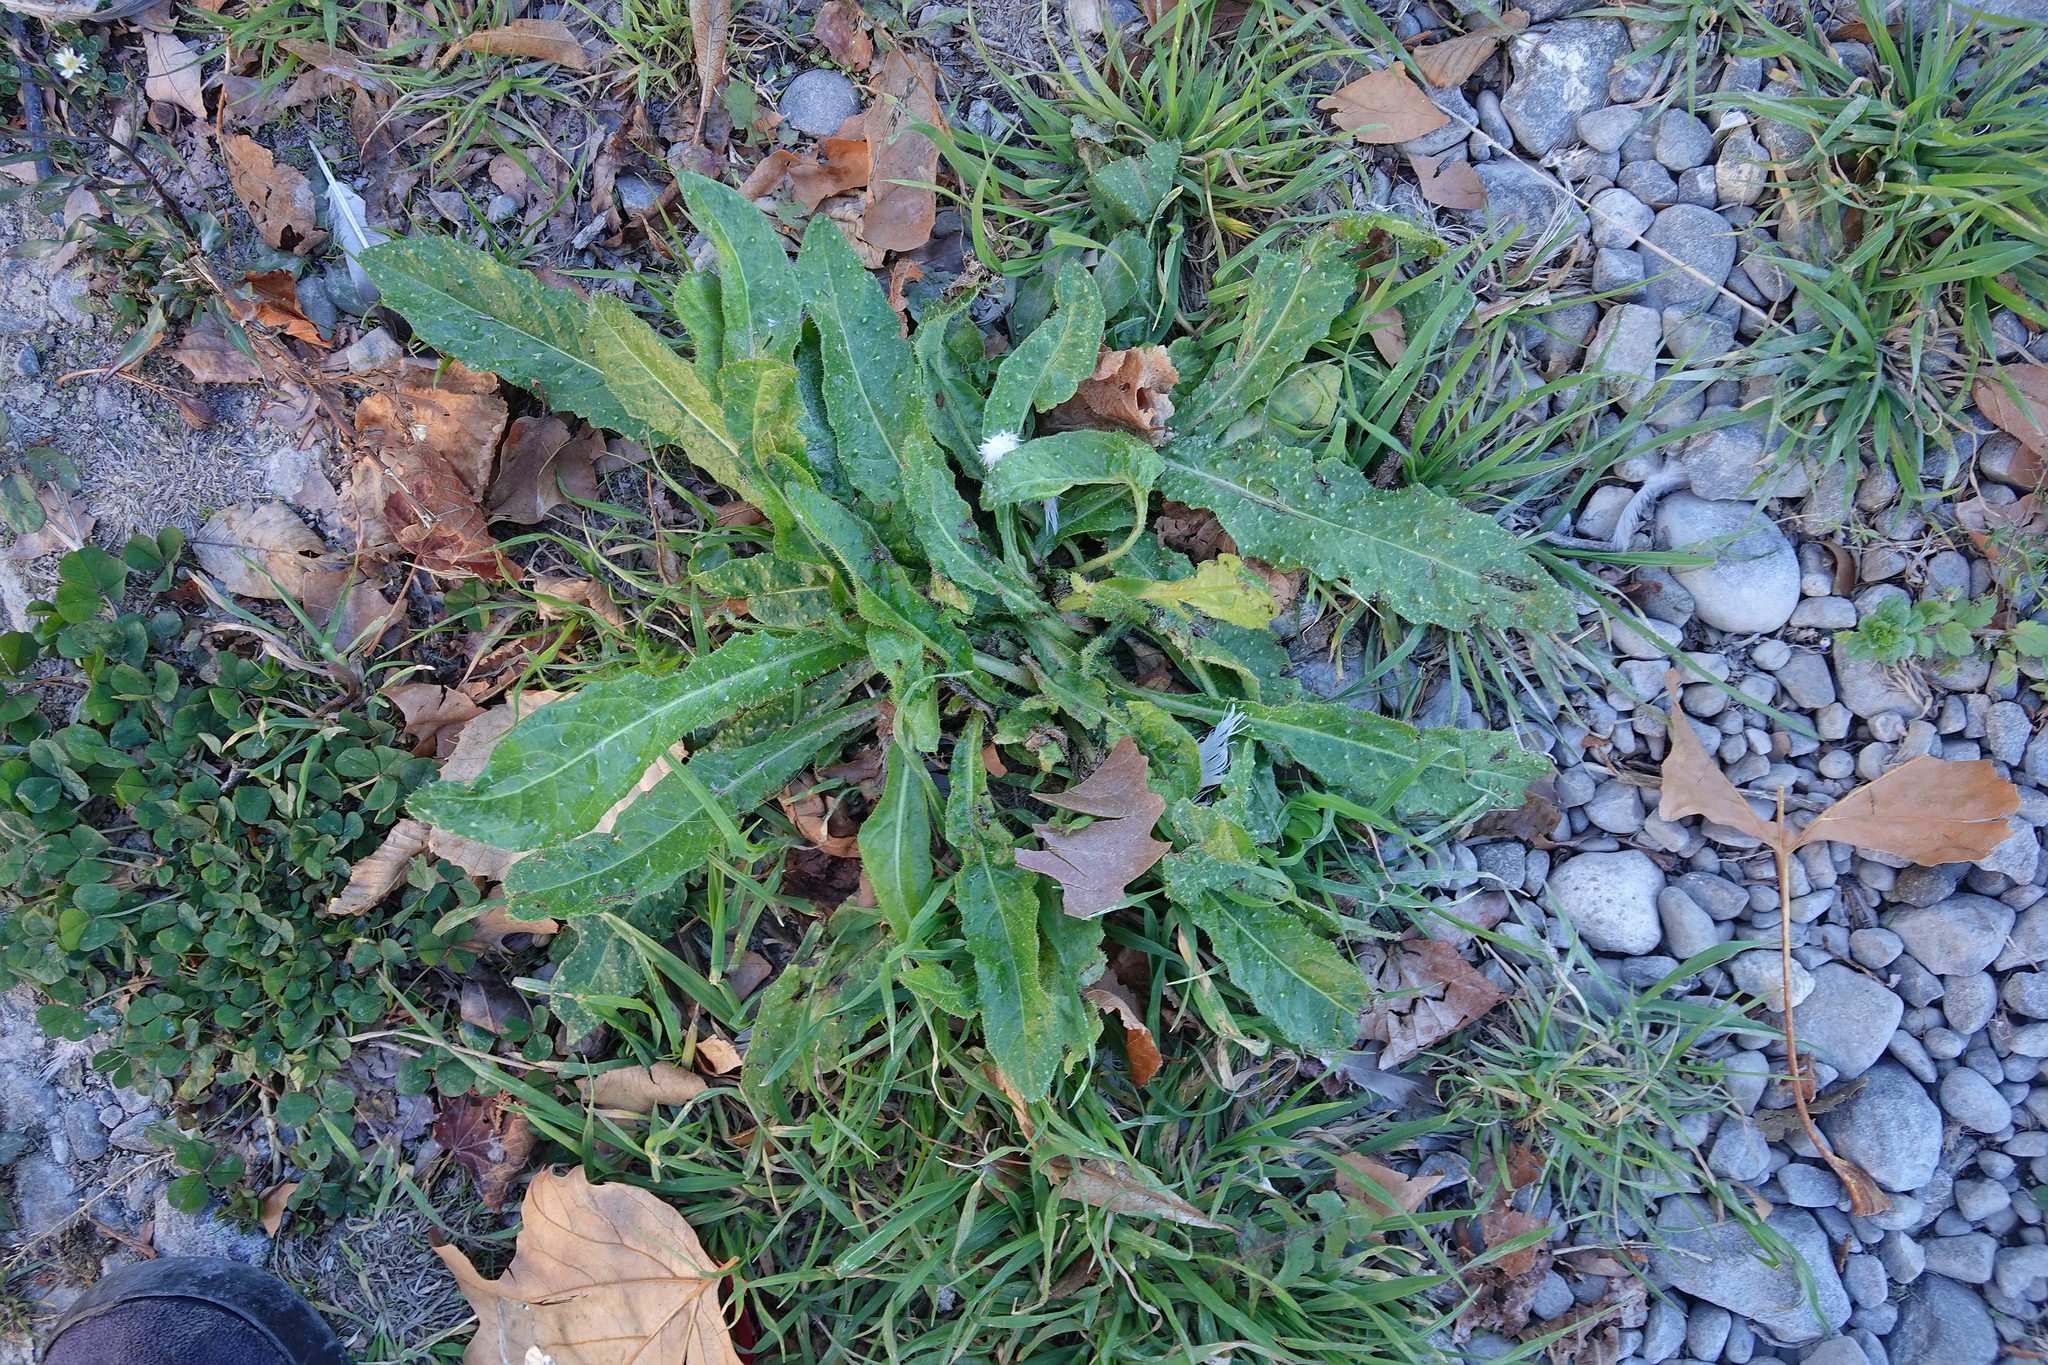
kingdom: Plantae
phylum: Tracheophyta
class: Magnoliopsida
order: Asterales
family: Asteraceae
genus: Helminthotheca
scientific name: Helminthotheca echioides
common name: Ox-tongue
